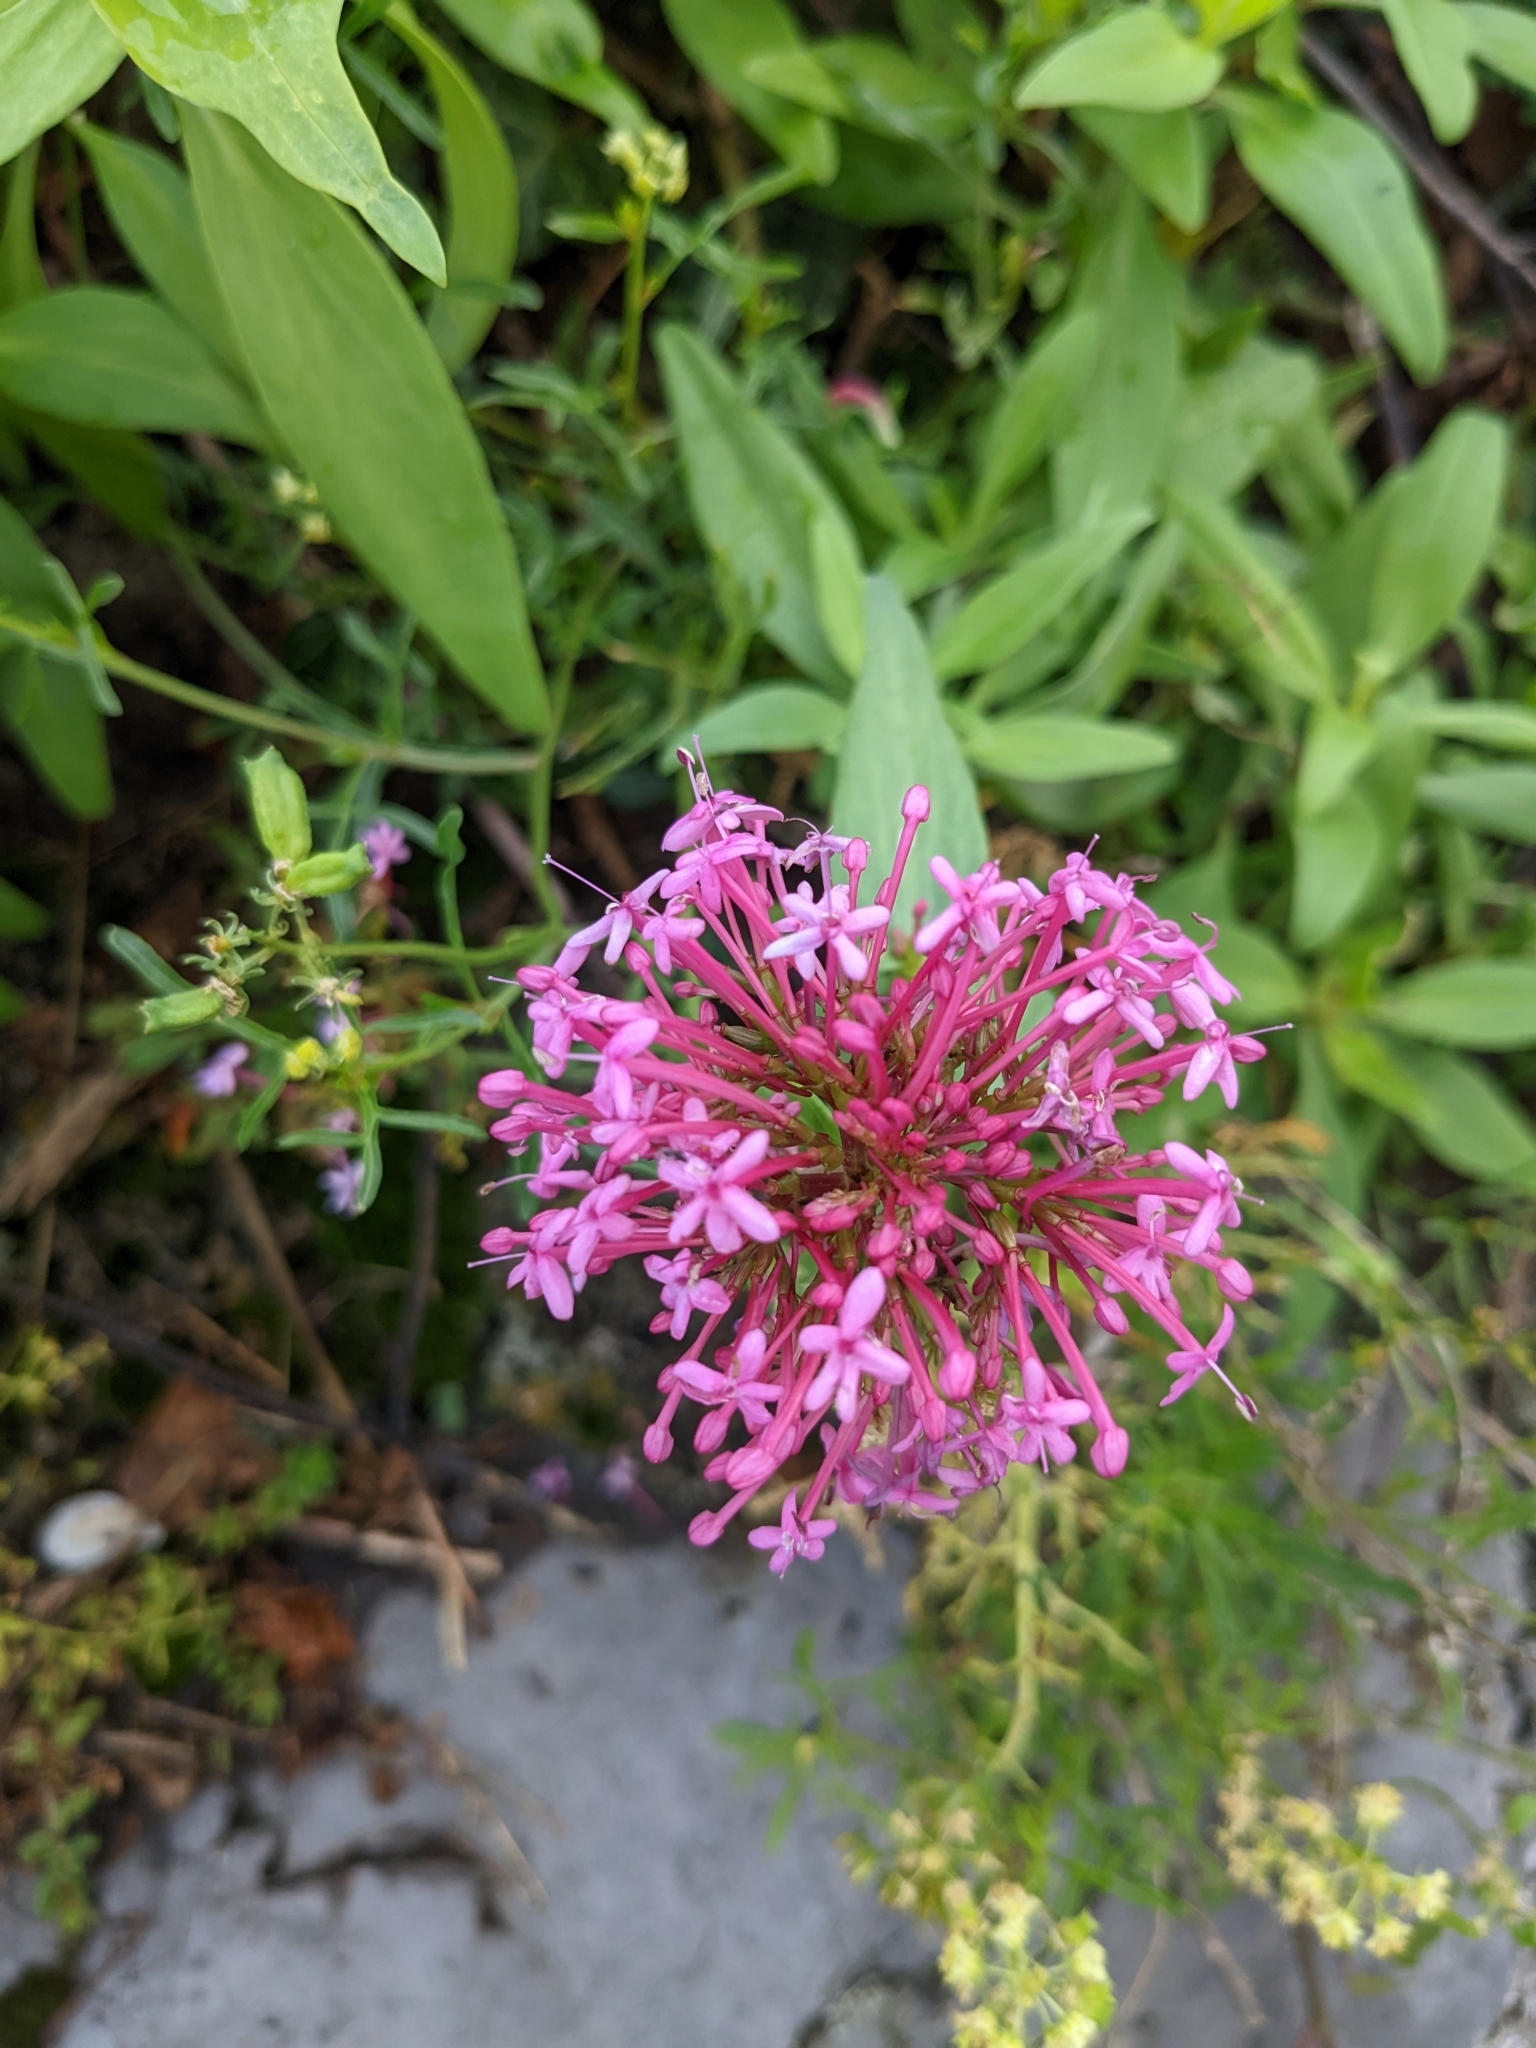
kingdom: Plantae
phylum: Tracheophyta
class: Magnoliopsida
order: Dipsacales
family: Caprifoliaceae
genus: Centranthus
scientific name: Centranthus ruber
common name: Red valerian
